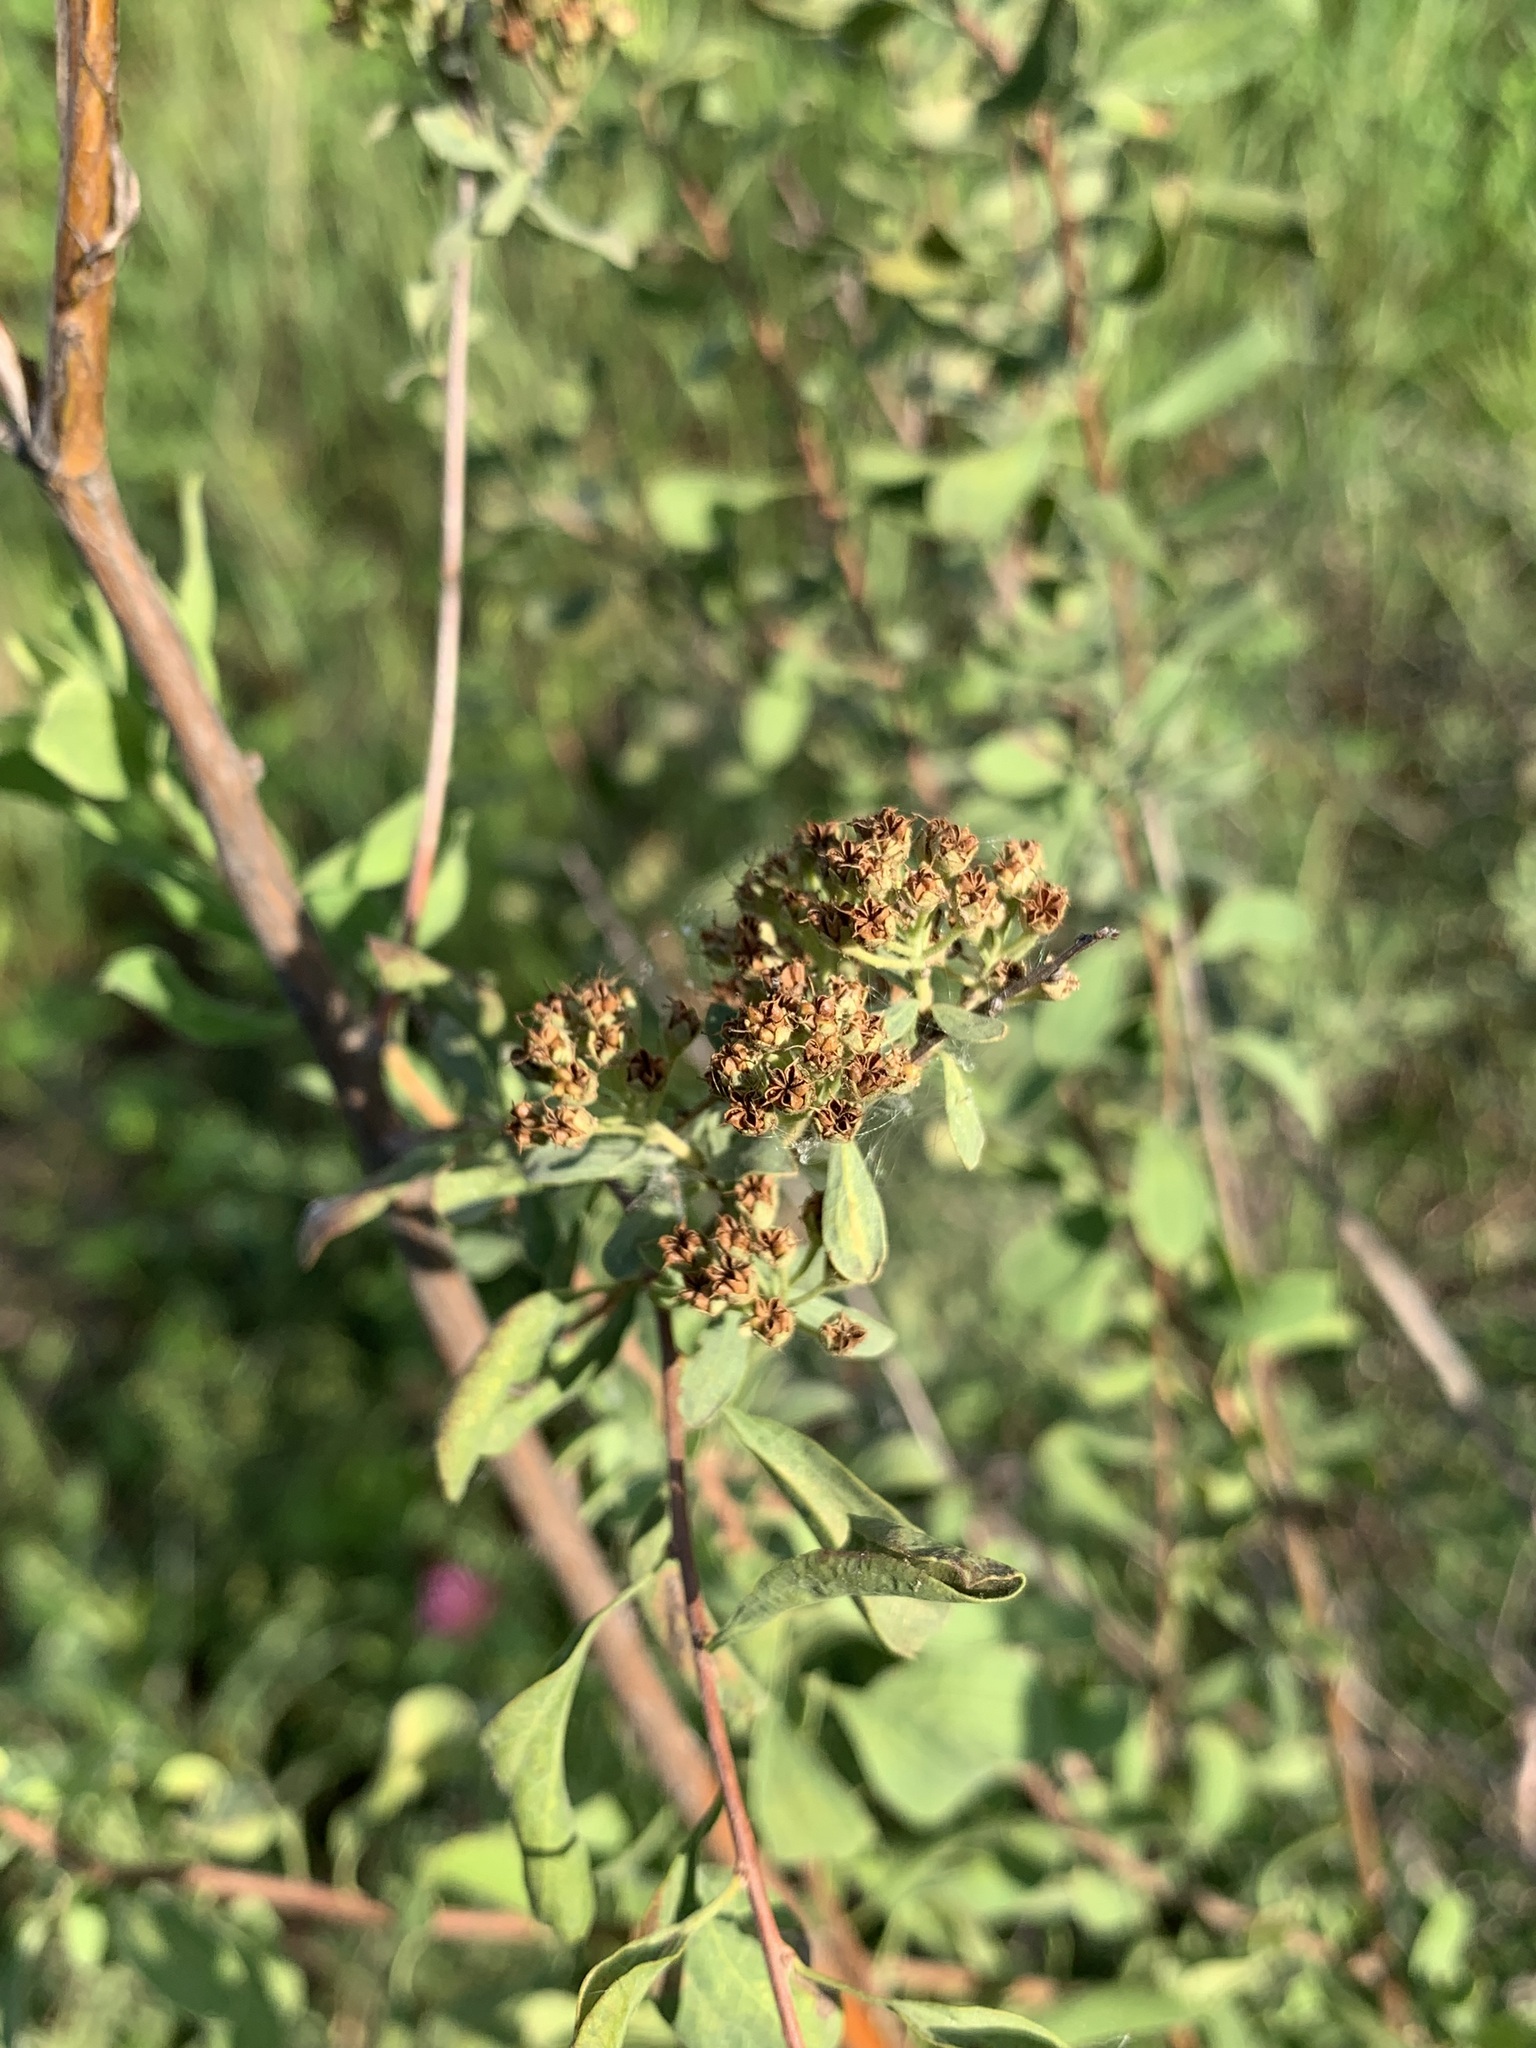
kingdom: Plantae
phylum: Tracheophyta
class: Magnoliopsida
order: Rosales
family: Rosaceae
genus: Spiraea
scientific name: Spiraea crenata
